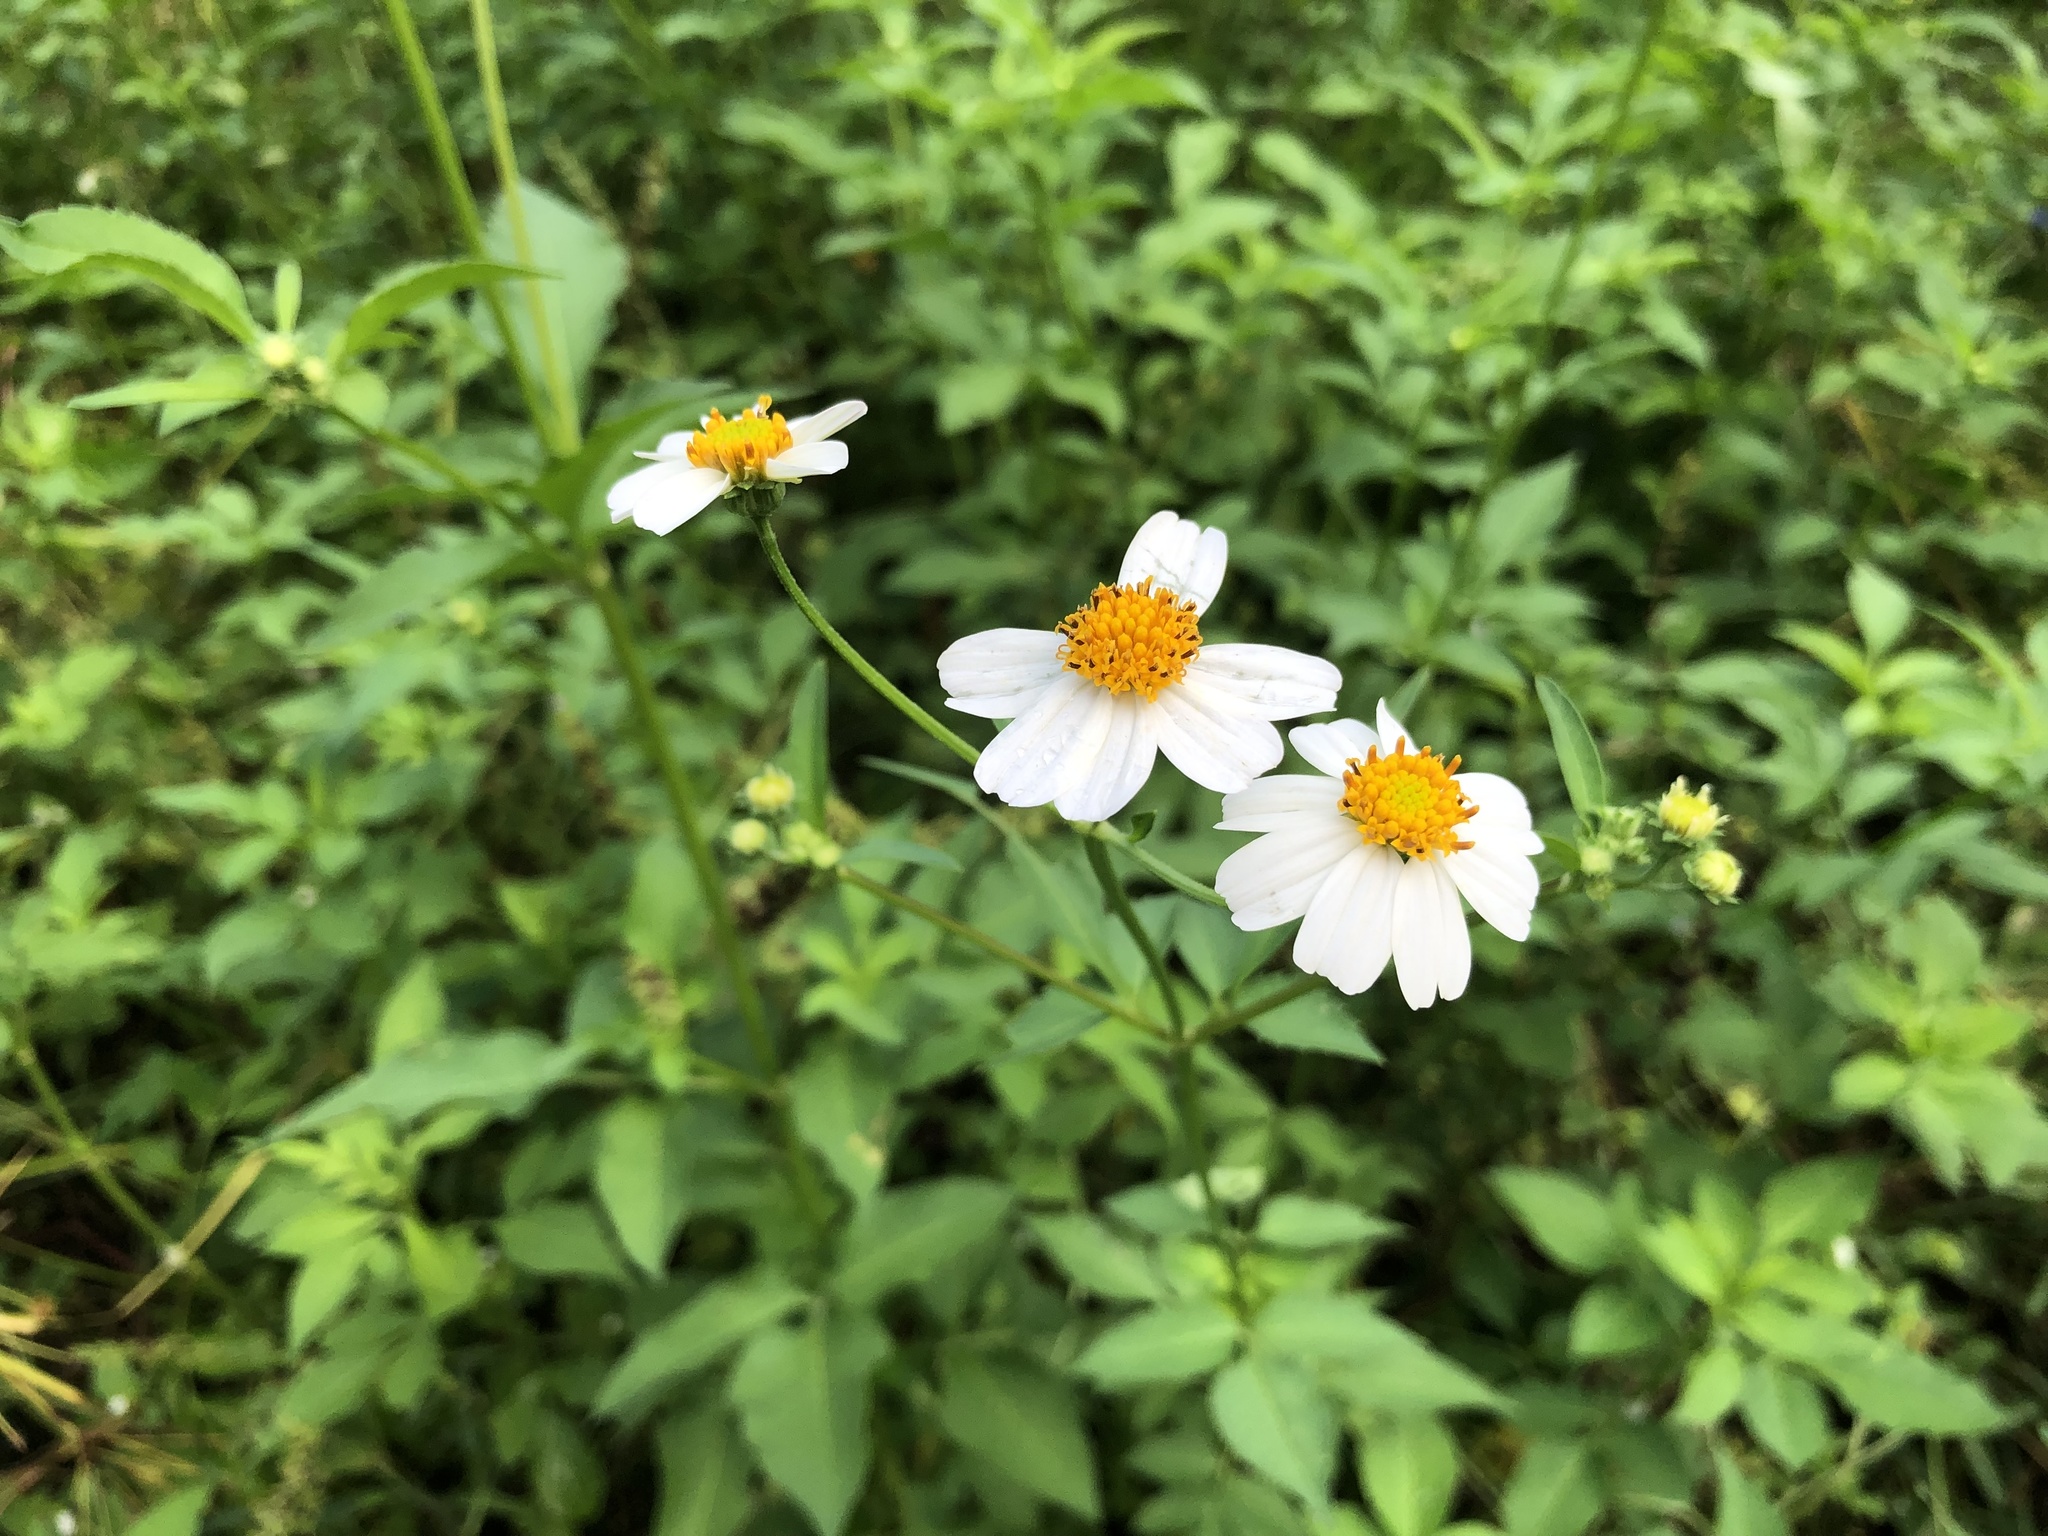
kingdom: Plantae
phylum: Tracheophyta
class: Magnoliopsida
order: Asterales
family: Asteraceae
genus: Bidens
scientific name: Bidens alba
